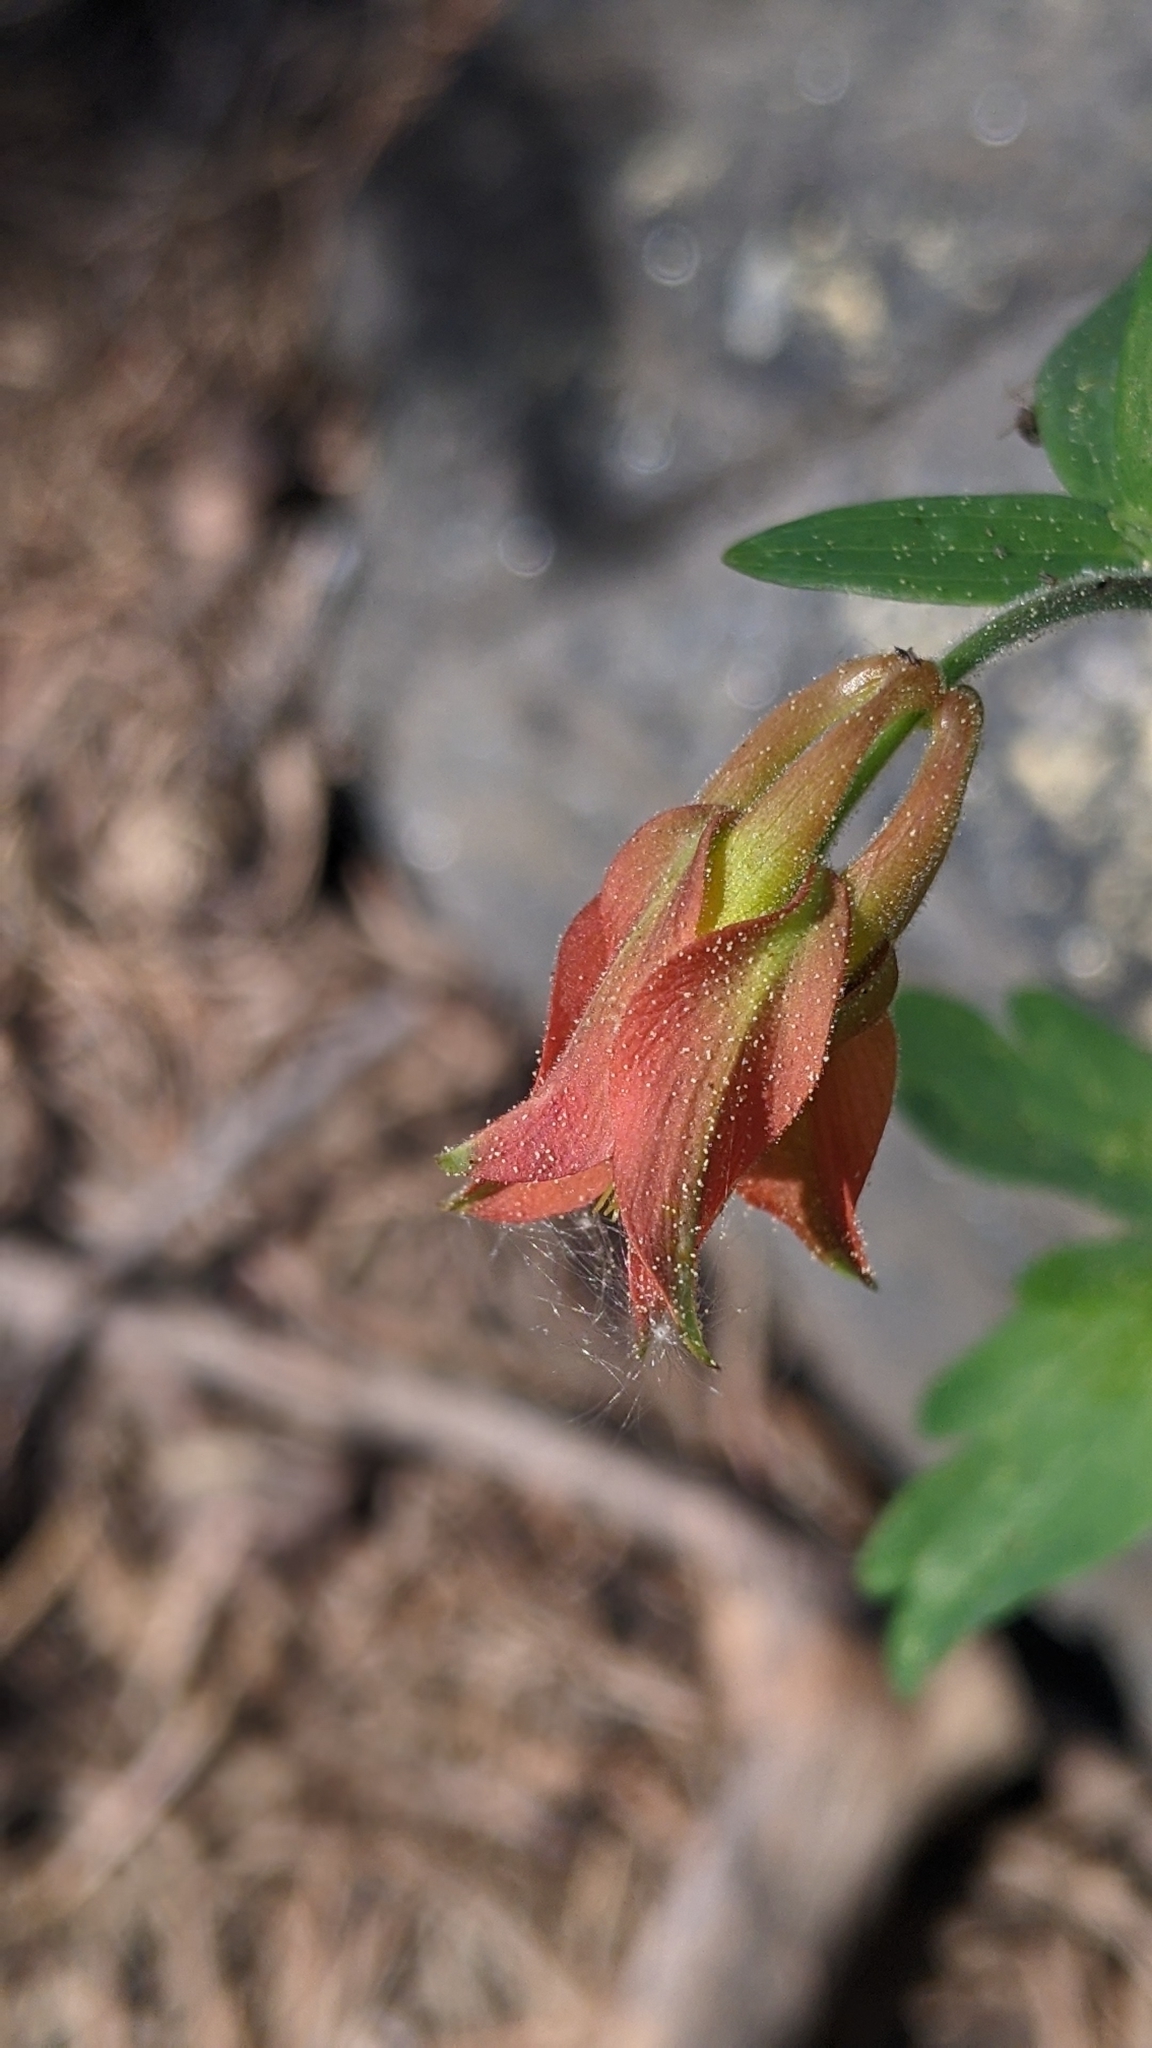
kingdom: Plantae
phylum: Tracheophyta
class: Magnoliopsida
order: Ranunculales
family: Ranunculaceae
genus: Aquilegia
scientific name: Aquilegia formosa
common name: Sitka columbine
